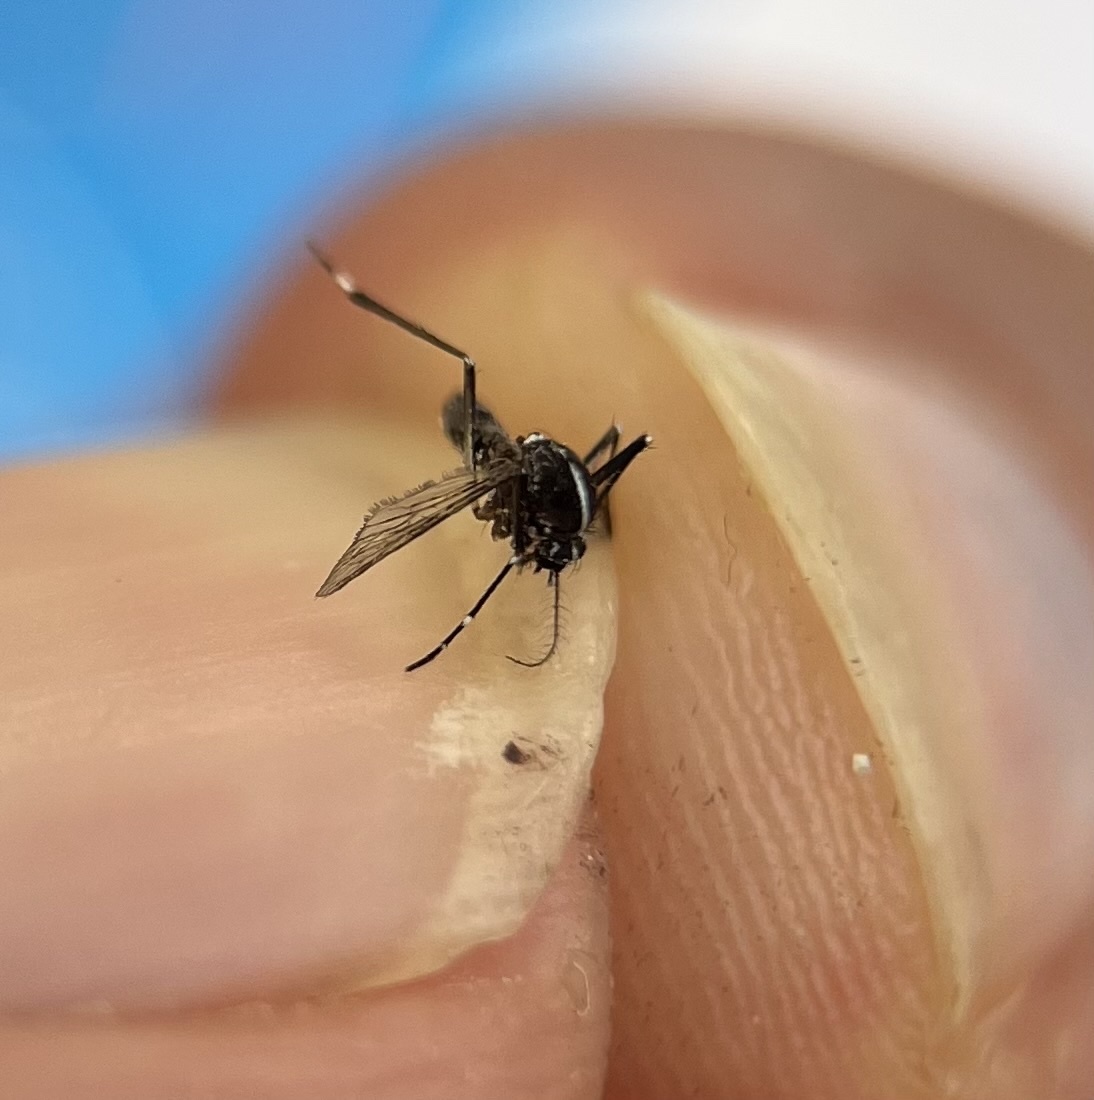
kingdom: Animalia
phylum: Arthropoda
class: Insecta
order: Diptera
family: Culicidae
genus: Aedes
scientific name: Aedes albopictus
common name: Tiger mosquito
